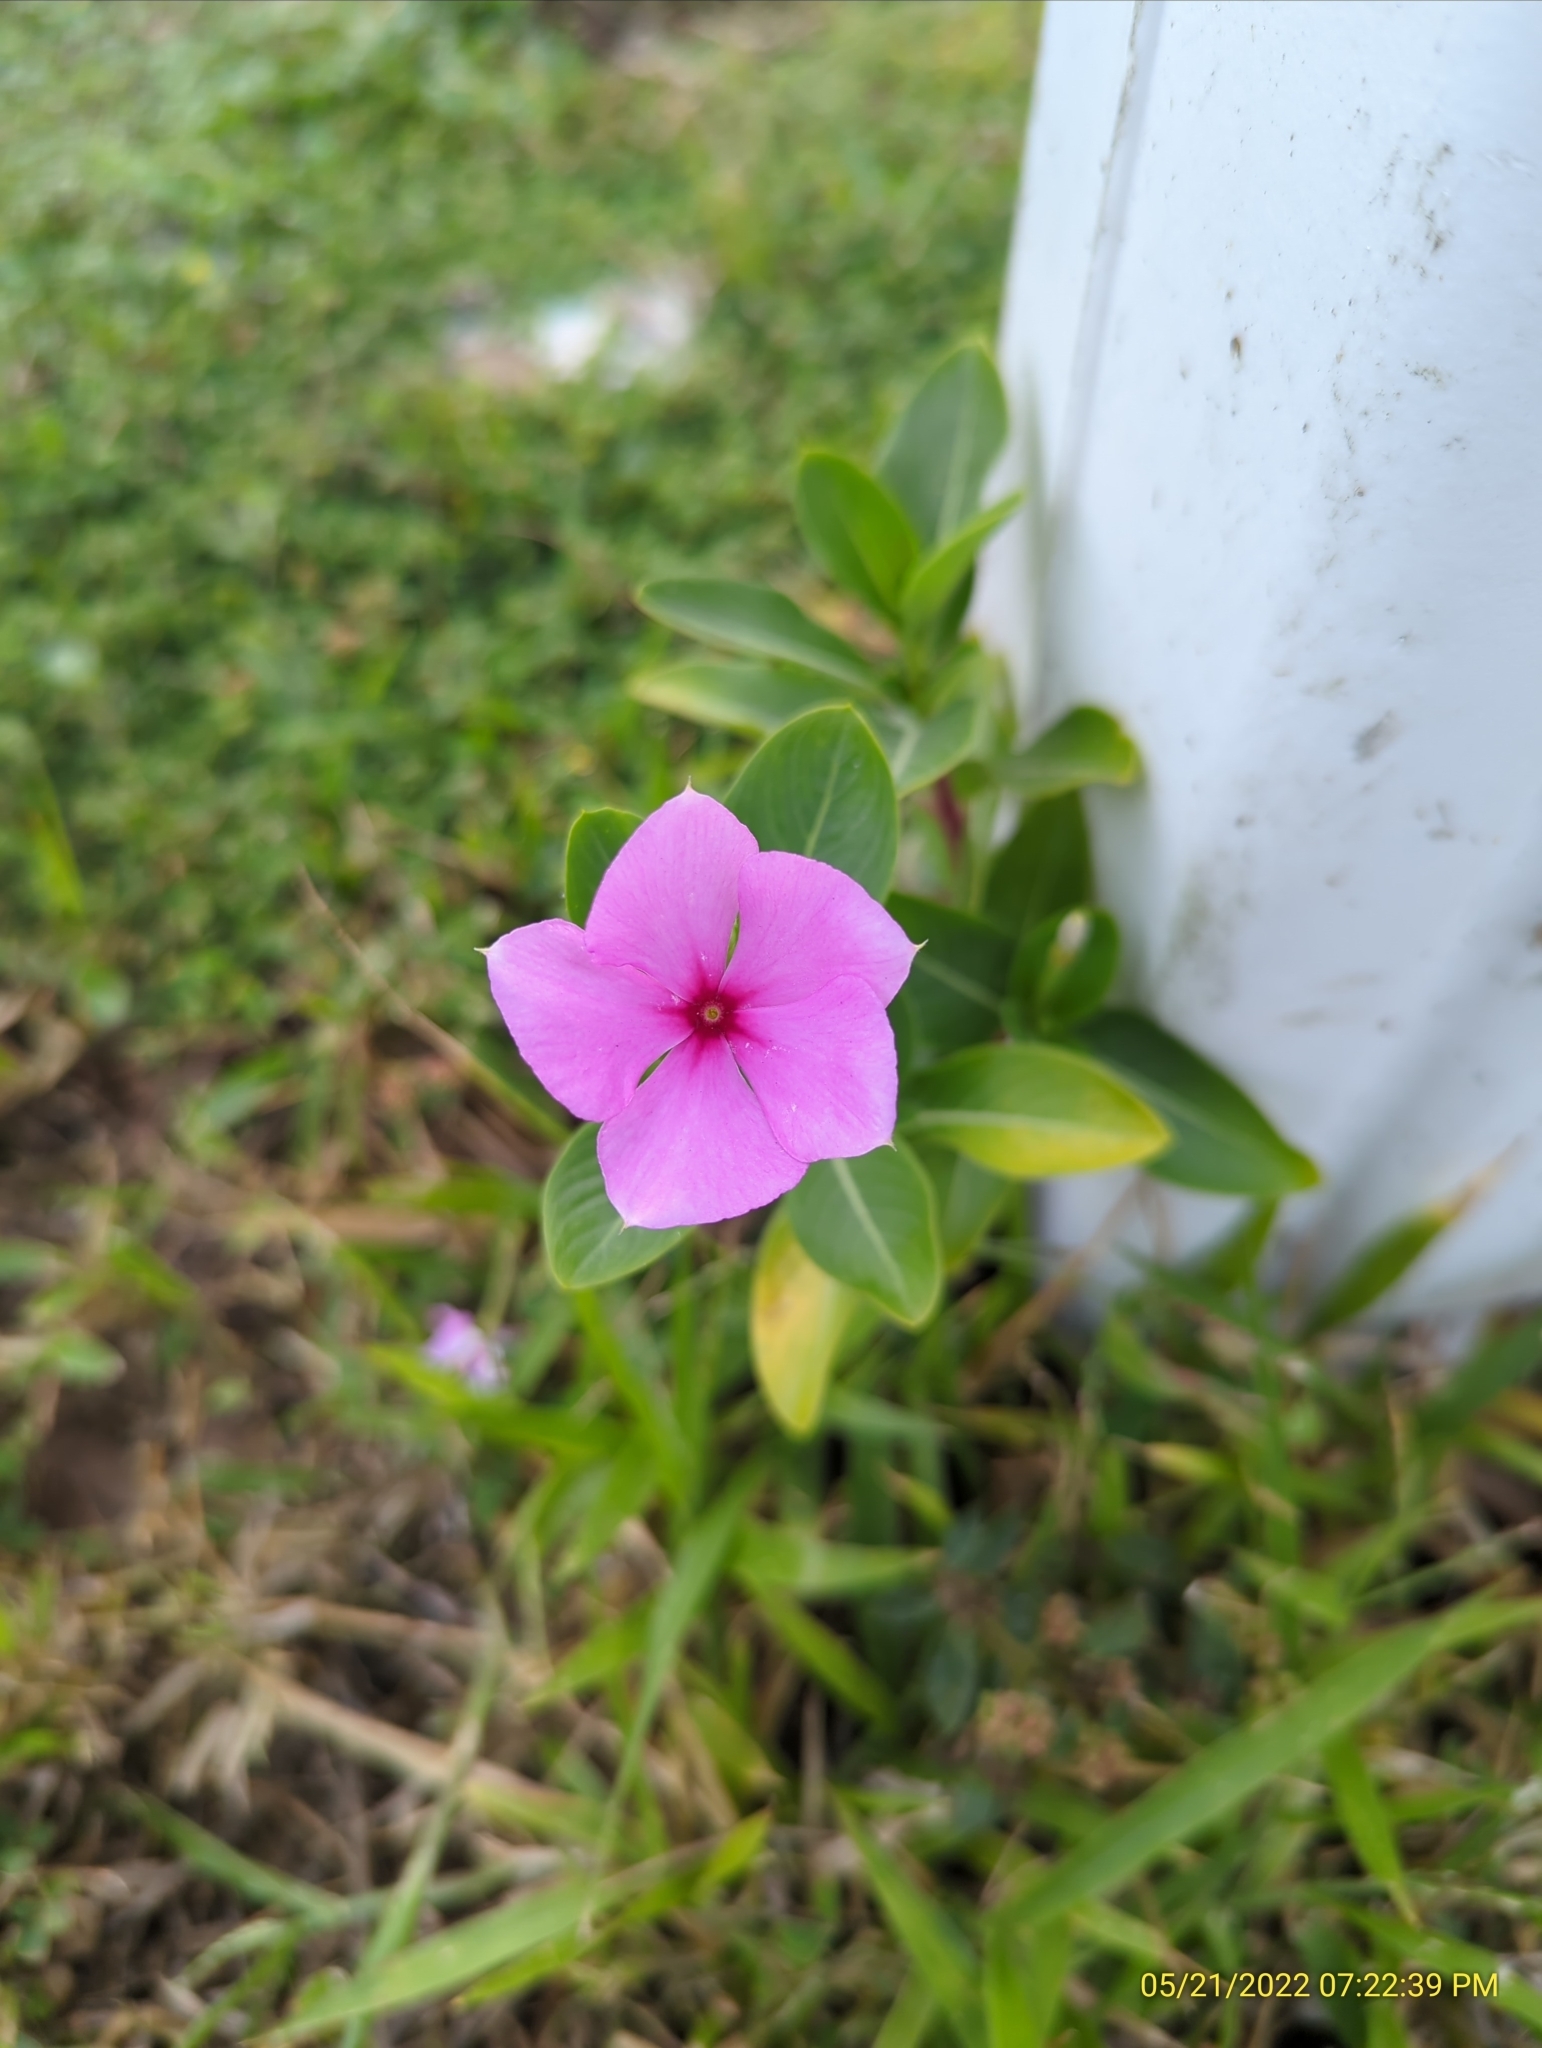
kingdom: Plantae
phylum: Tracheophyta
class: Magnoliopsida
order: Gentianales
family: Apocynaceae
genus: Catharanthus
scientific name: Catharanthus roseus
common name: Madagascar periwinkle
